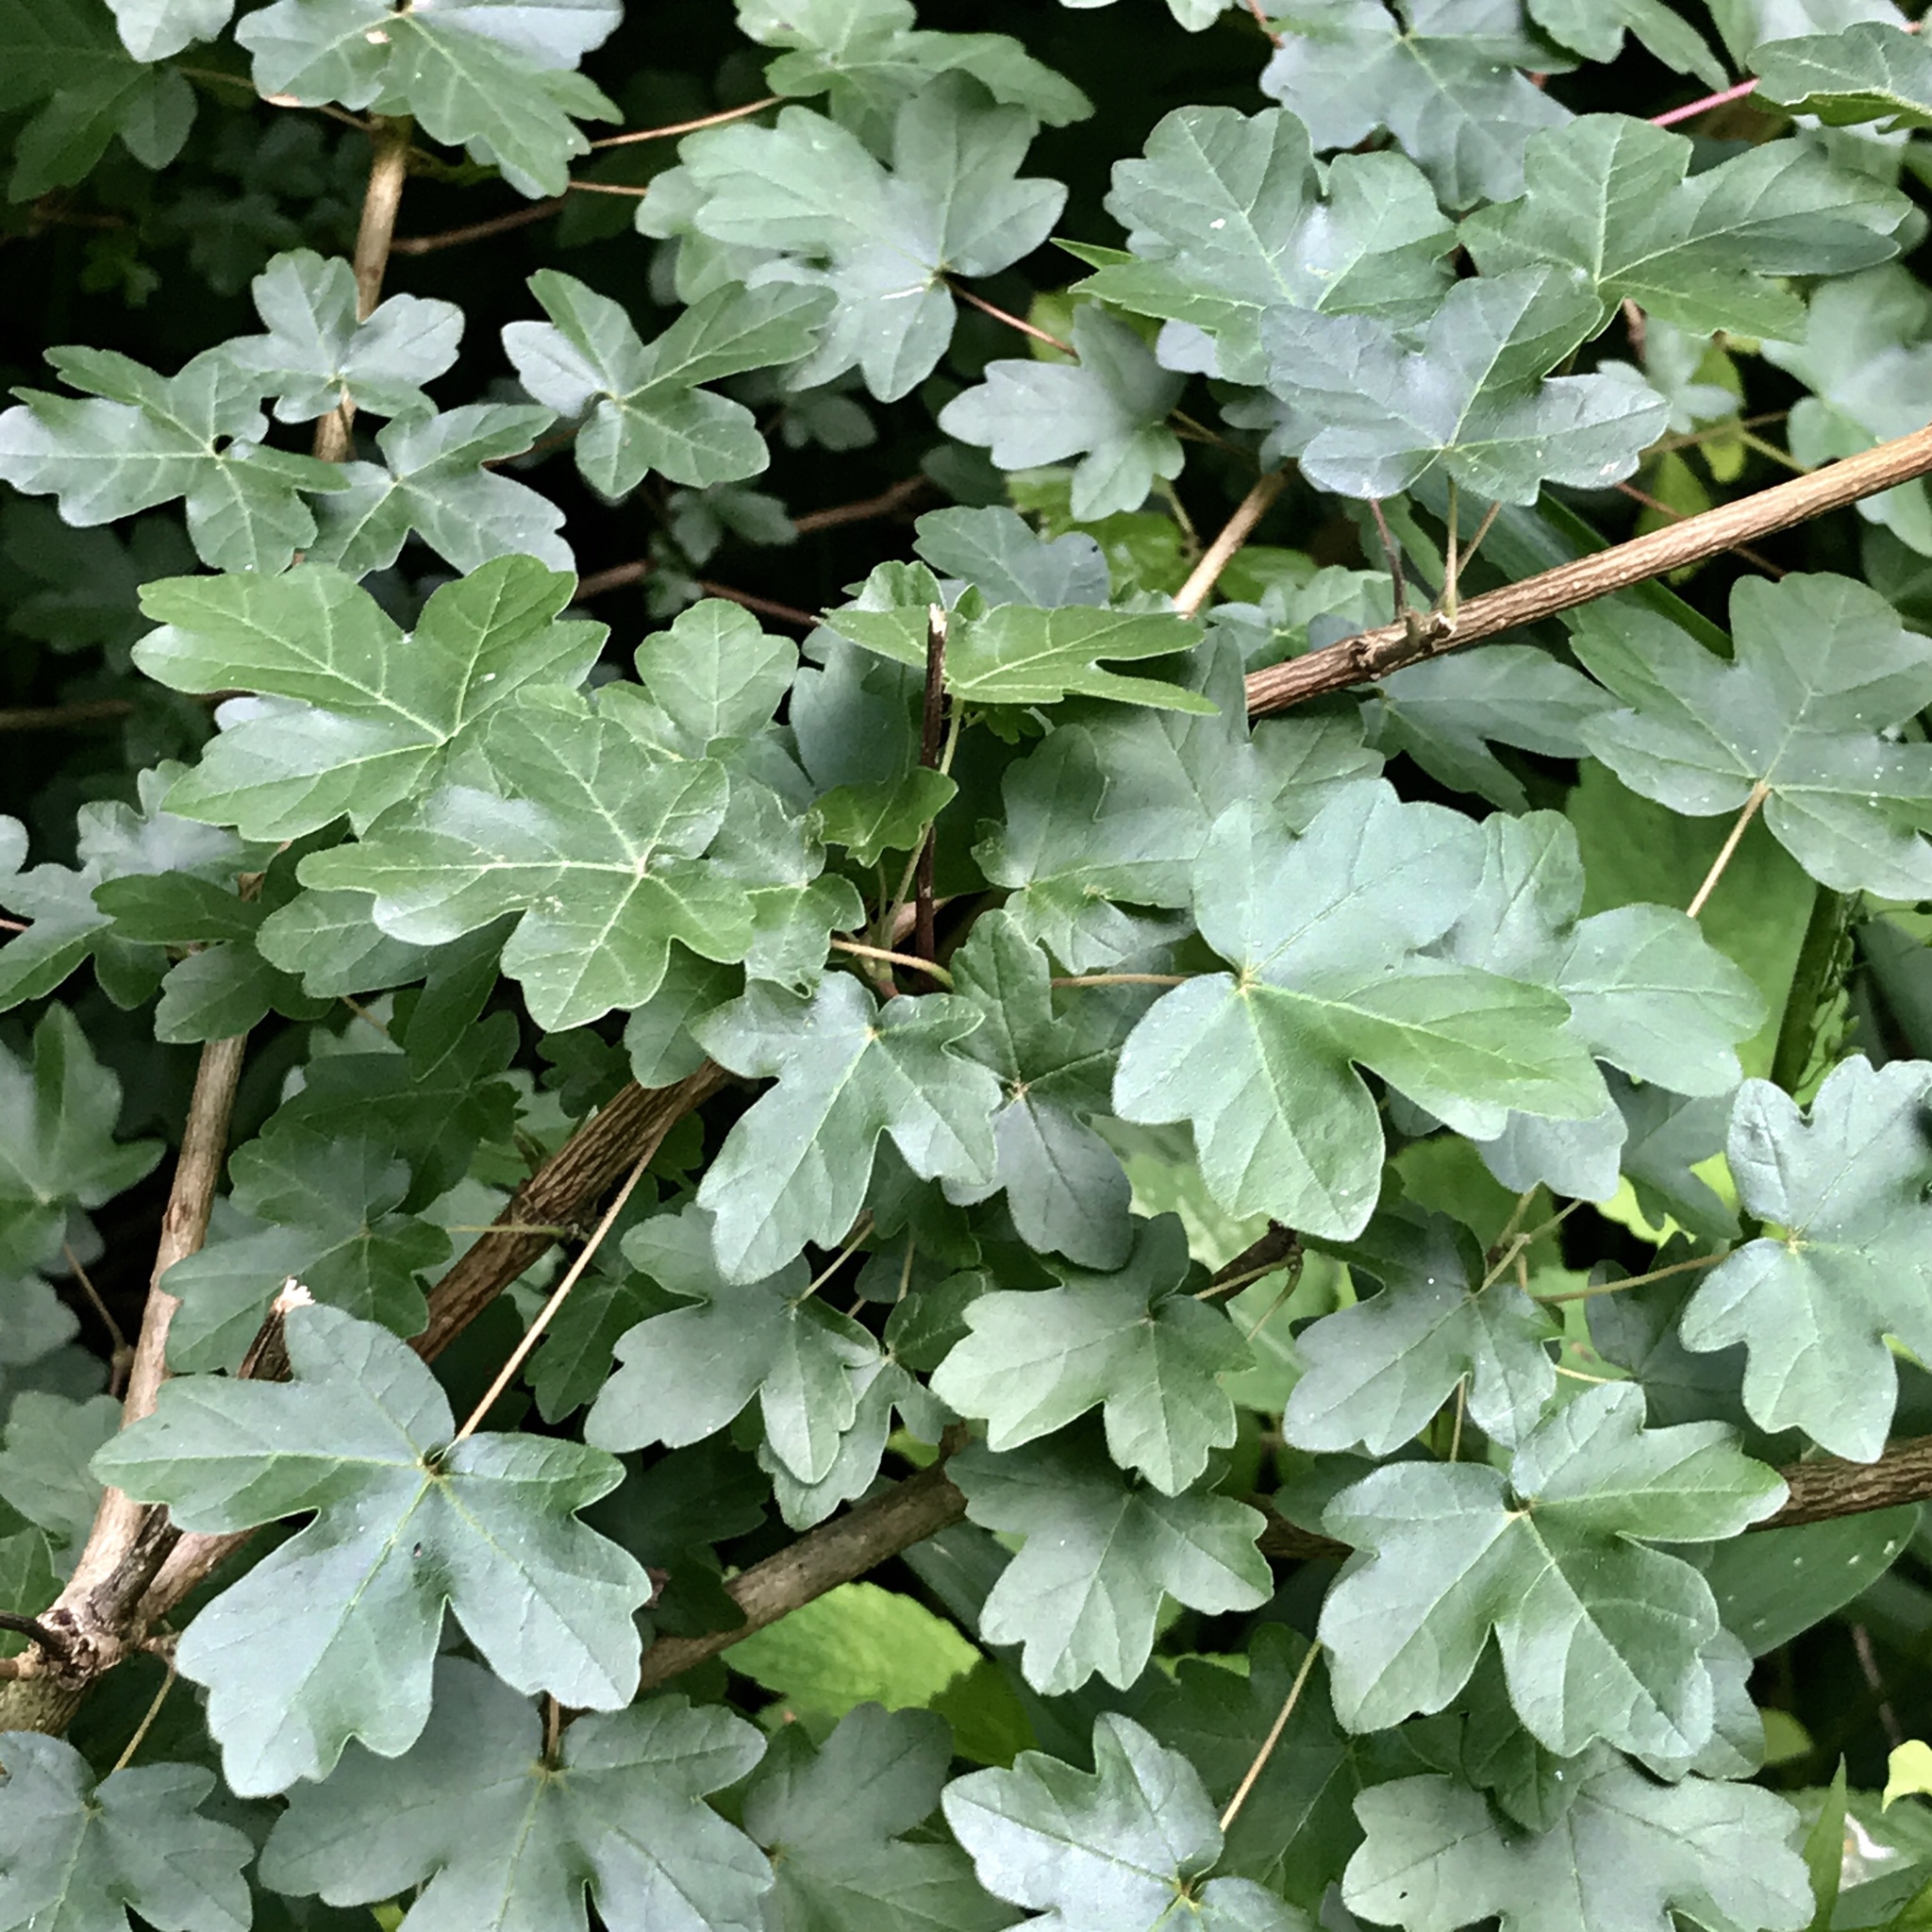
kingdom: Plantae
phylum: Tracheophyta
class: Magnoliopsida
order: Sapindales
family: Sapindaceae
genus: Acer
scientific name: Acer campestre
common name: Field maple
